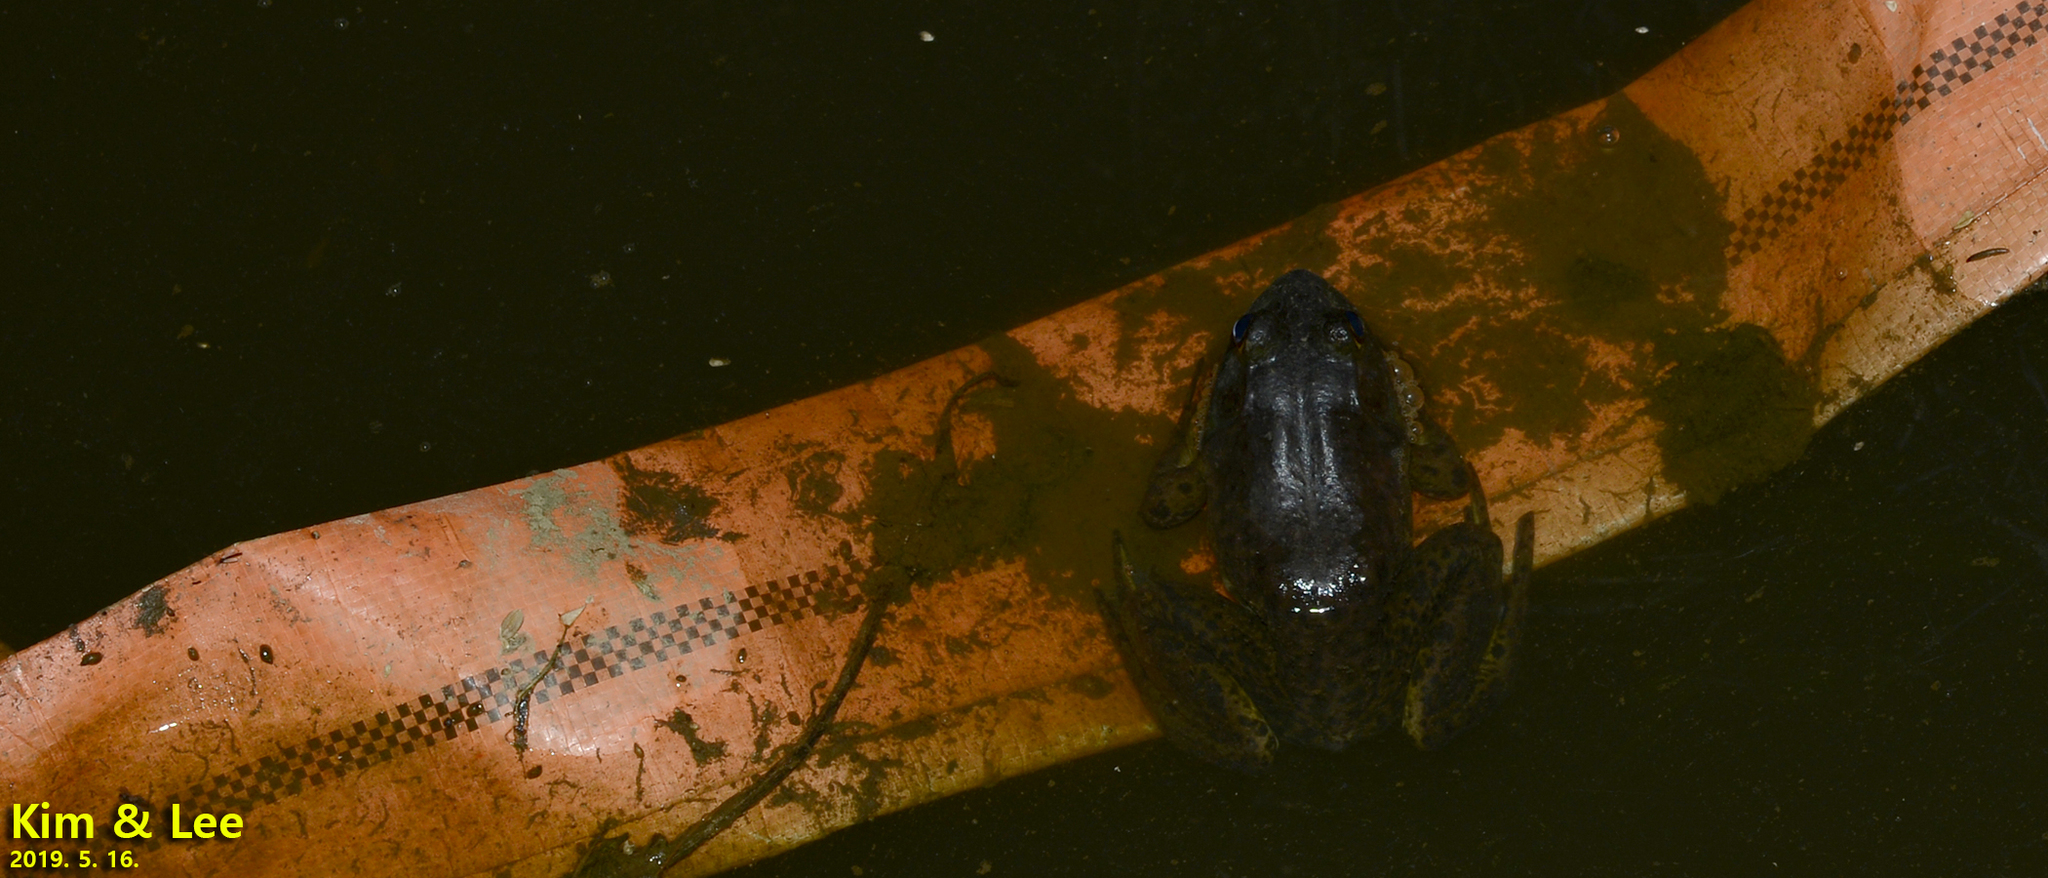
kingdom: Animalia
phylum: Chordata
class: Amphibia
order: Anura
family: Ranidae
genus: Lithobates
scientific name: Lithobates catesbeianus
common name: American bullfrog
